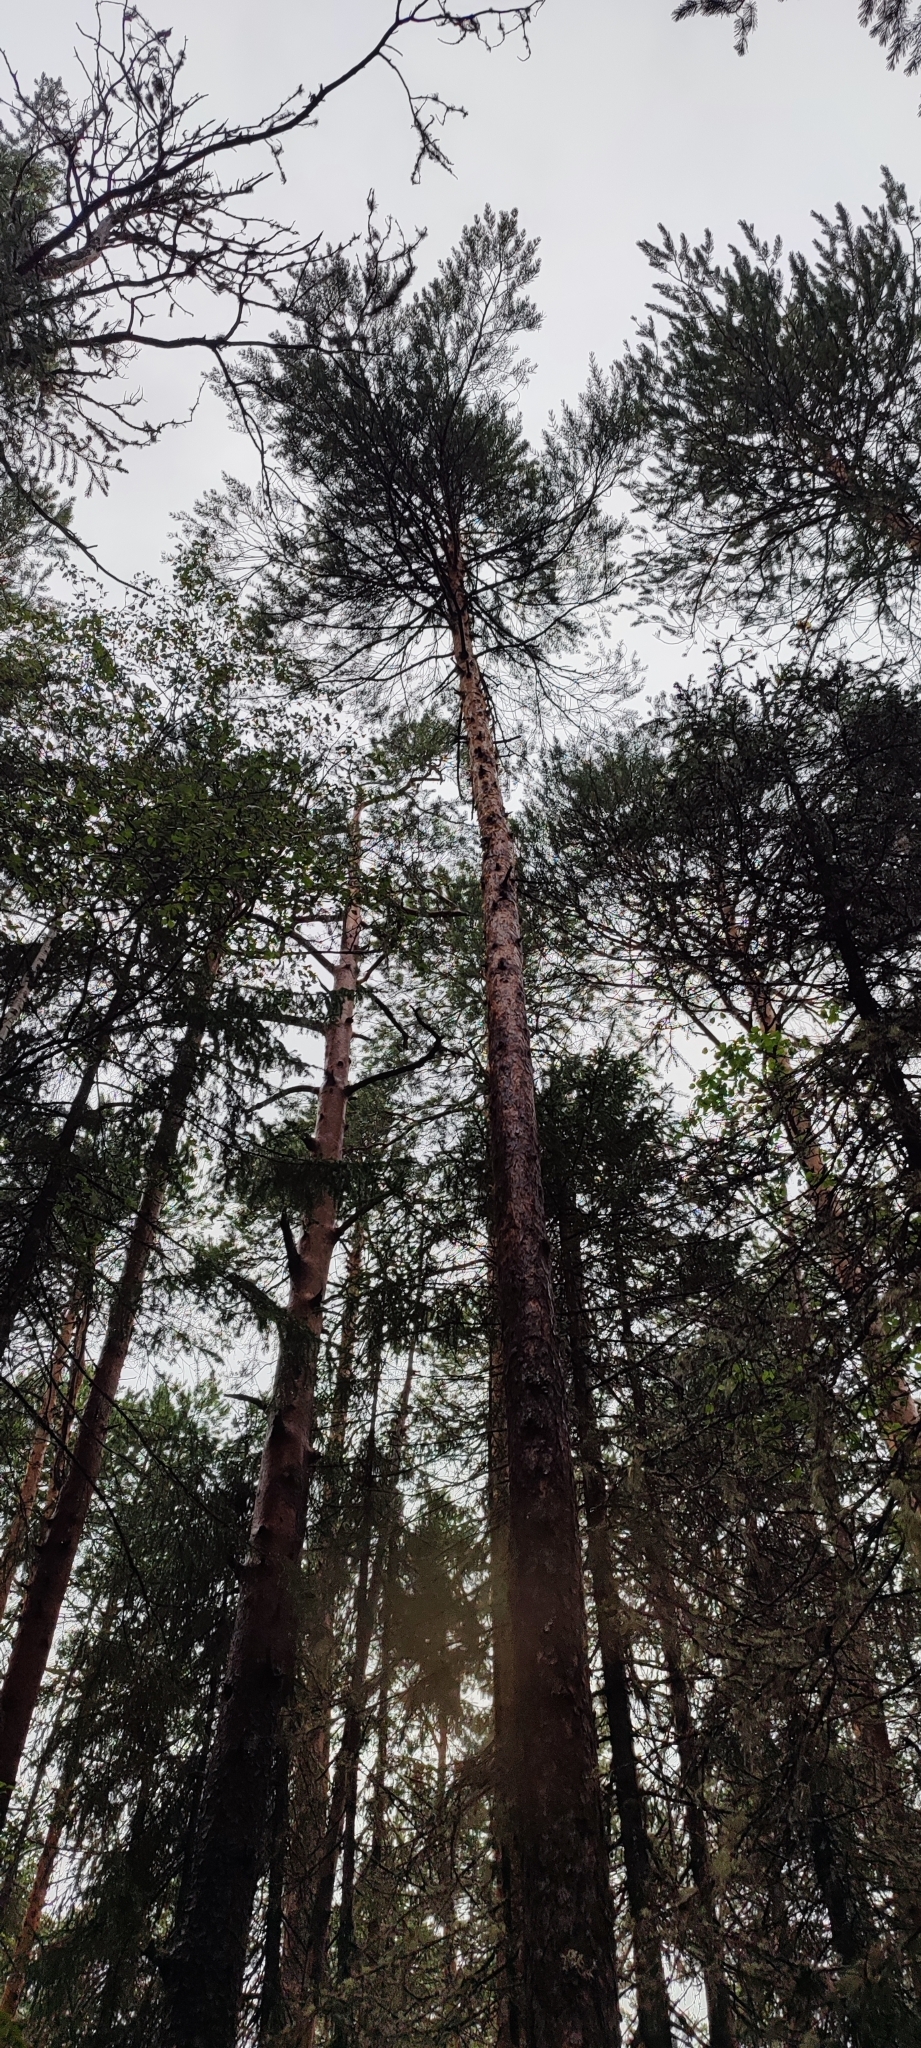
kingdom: Plantae
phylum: Tracheophyta
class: Pinopsida
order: Pinales
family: Pinaceae
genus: Pinus
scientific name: Pinus sylvestris
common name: Scots pine
